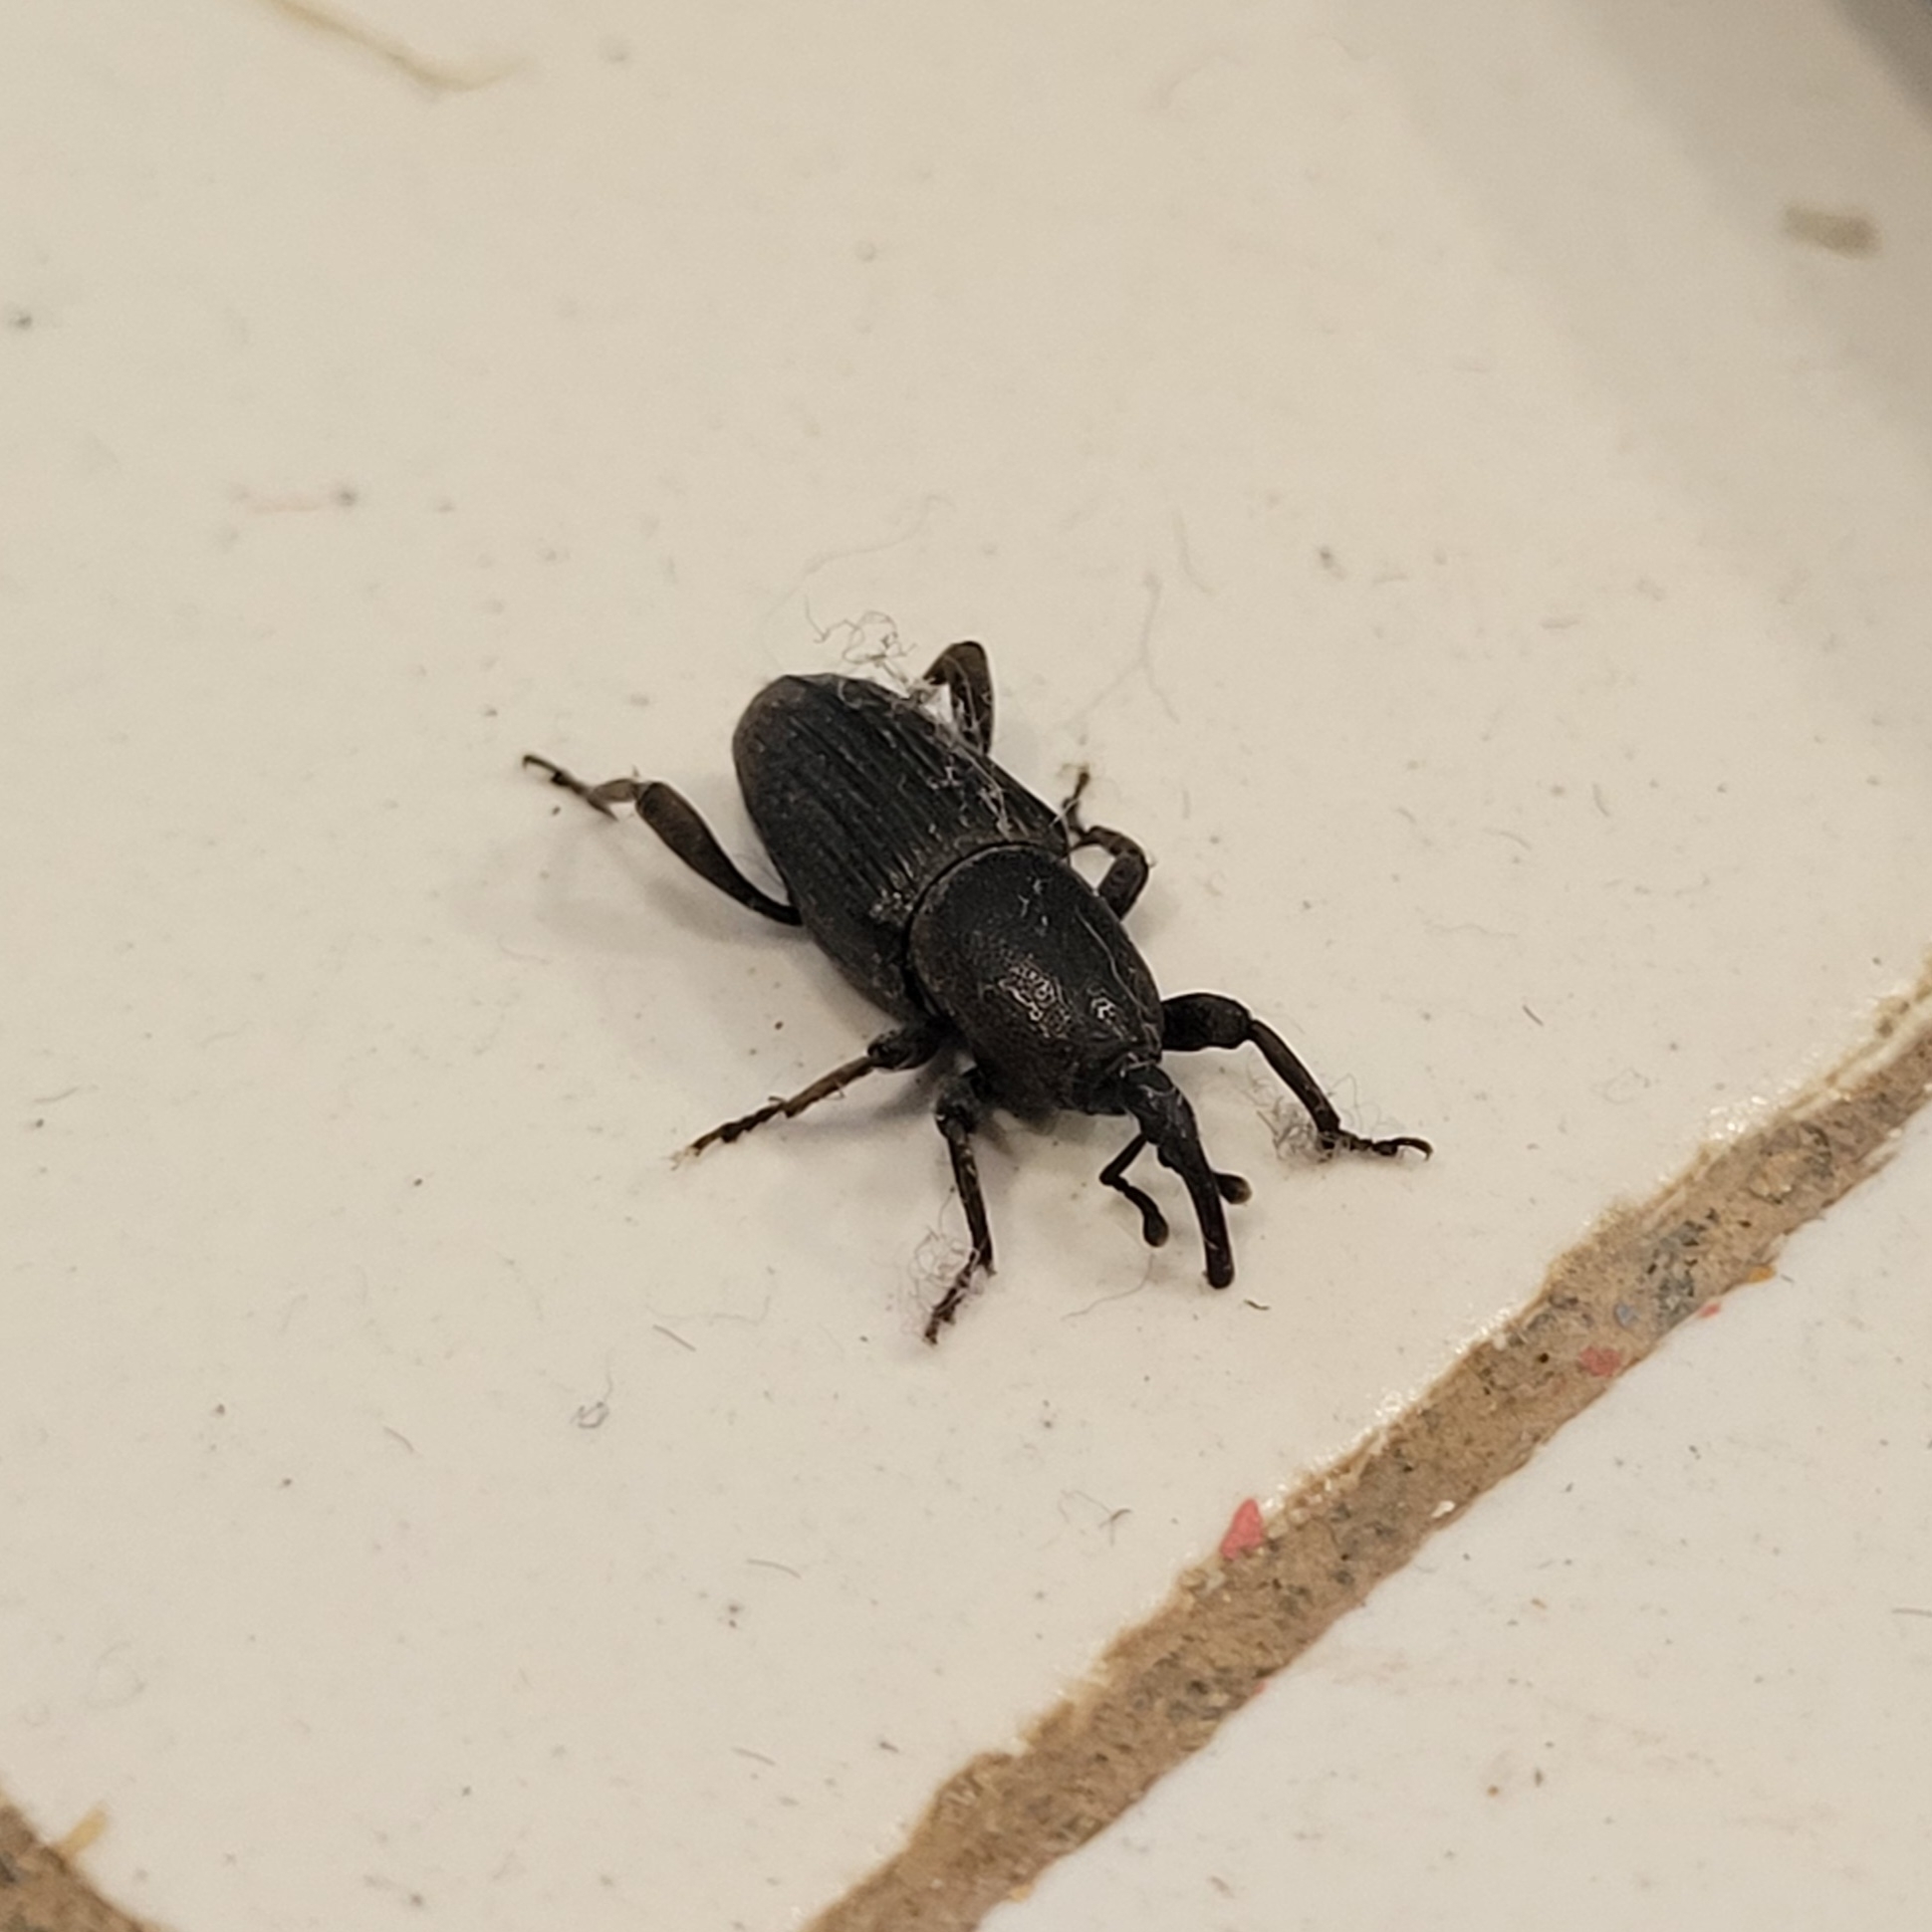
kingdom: Animalia
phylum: Arthropoda
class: Insecta
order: Coleoptera
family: Dryophthoridae
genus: Cosmopolites
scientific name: Cosmopolites sordidus
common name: Palm weevil
